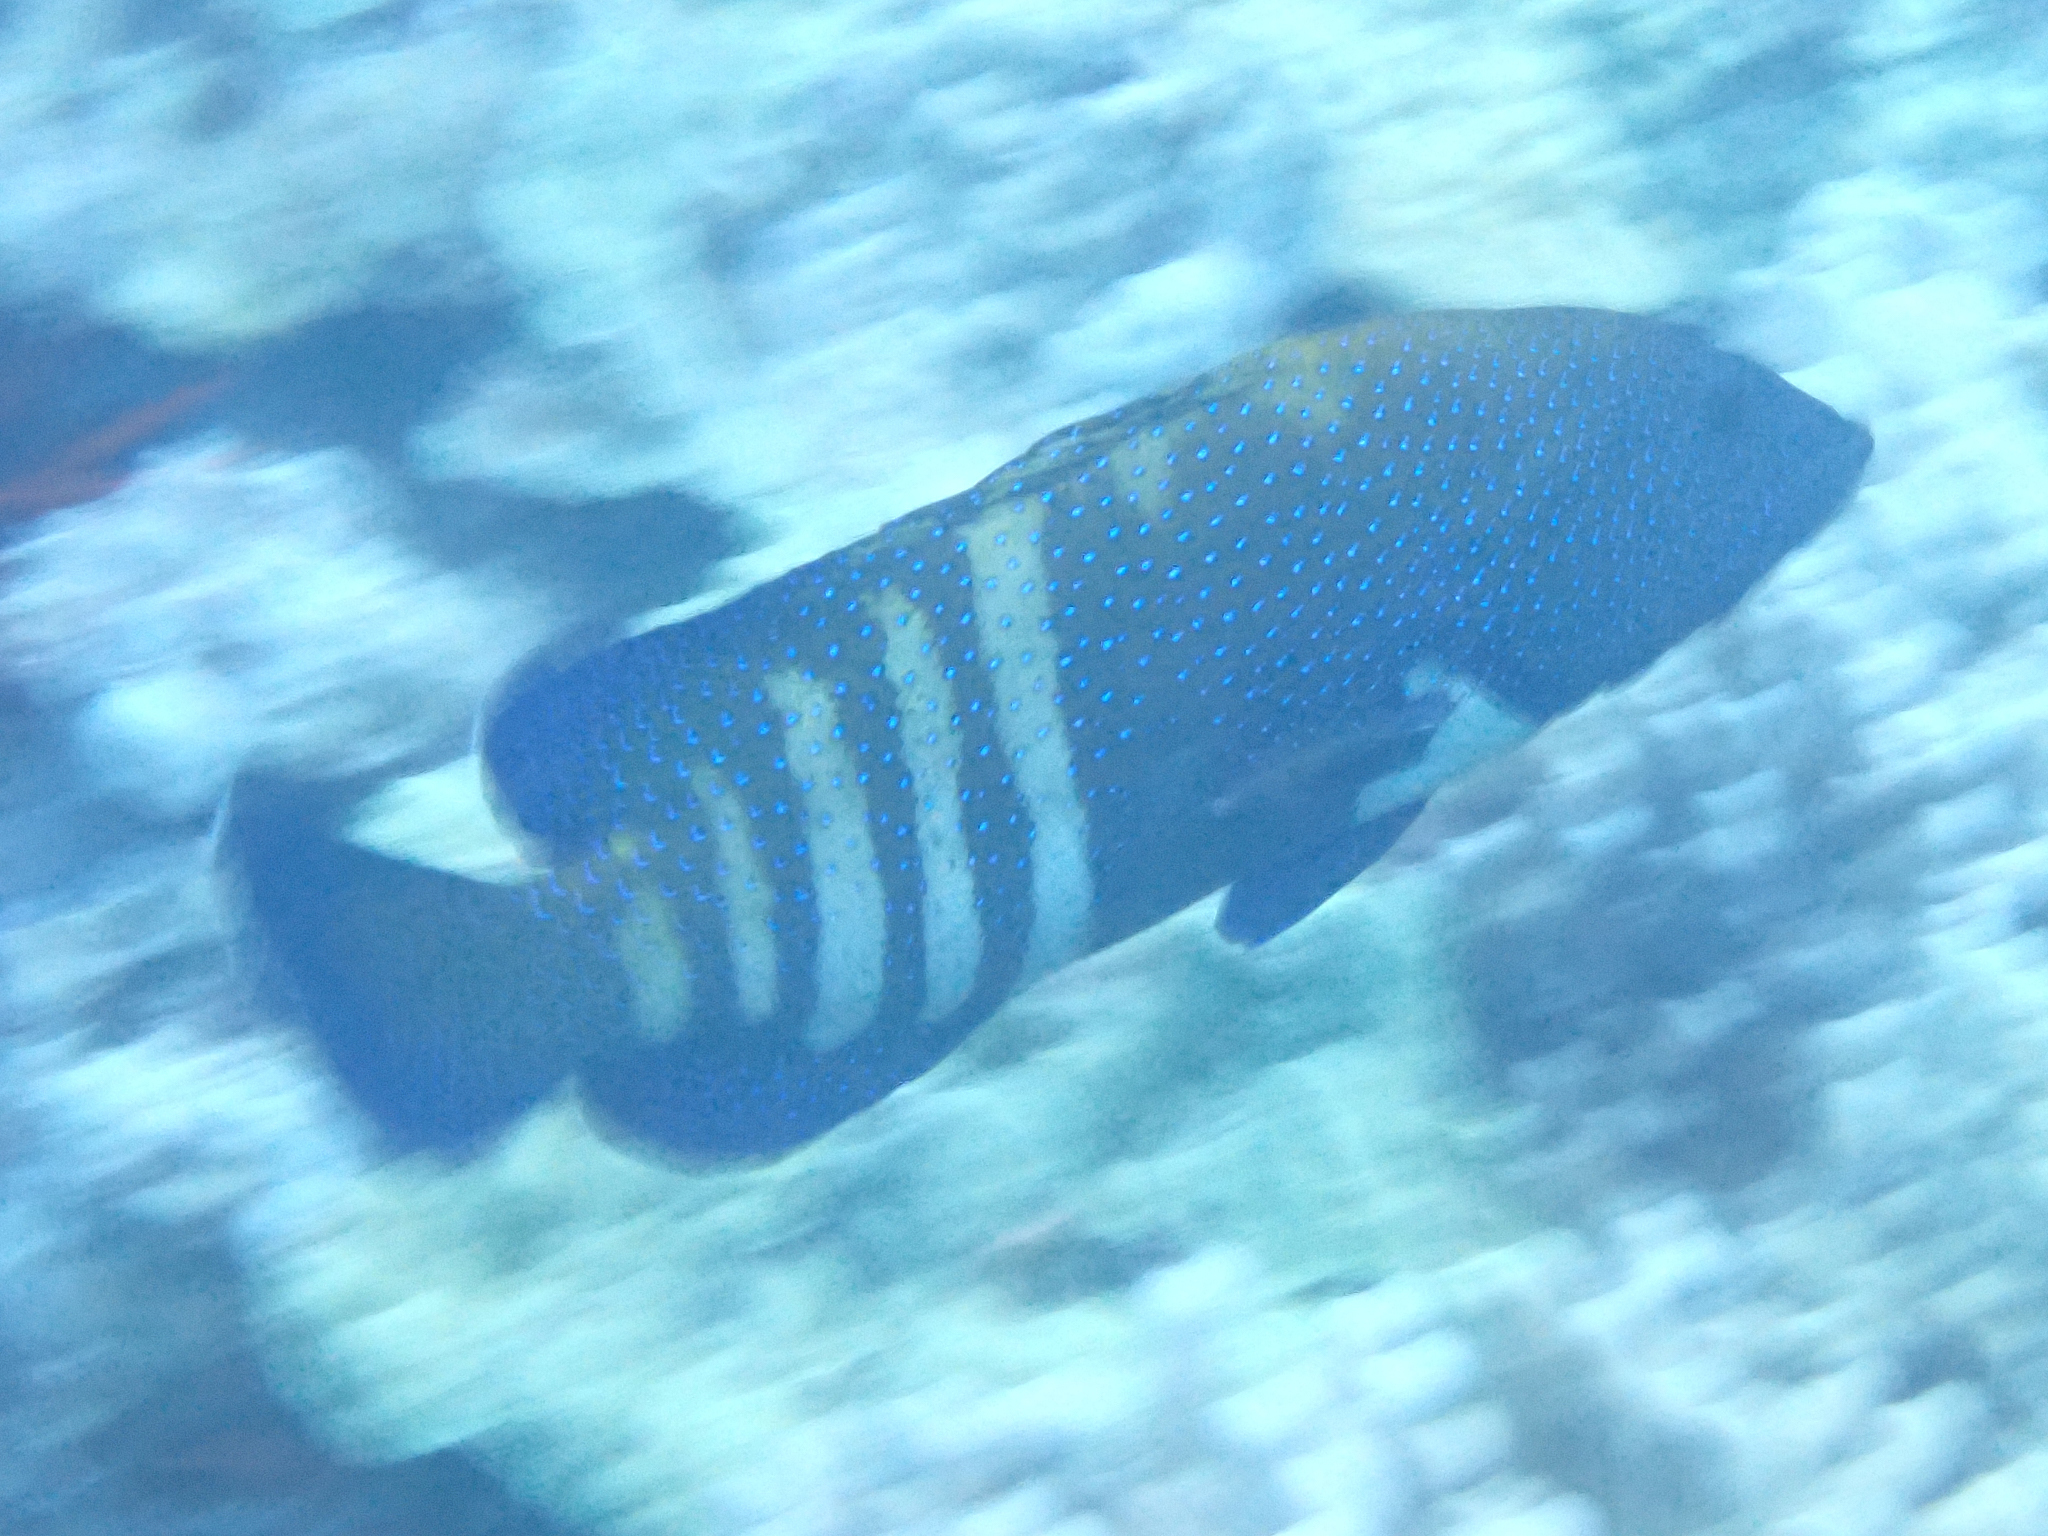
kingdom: Animalia
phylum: Chordata
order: Perciformes
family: Serranidae
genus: Cephalopholis
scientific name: Cephalopholis argus
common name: Peacock grouper
